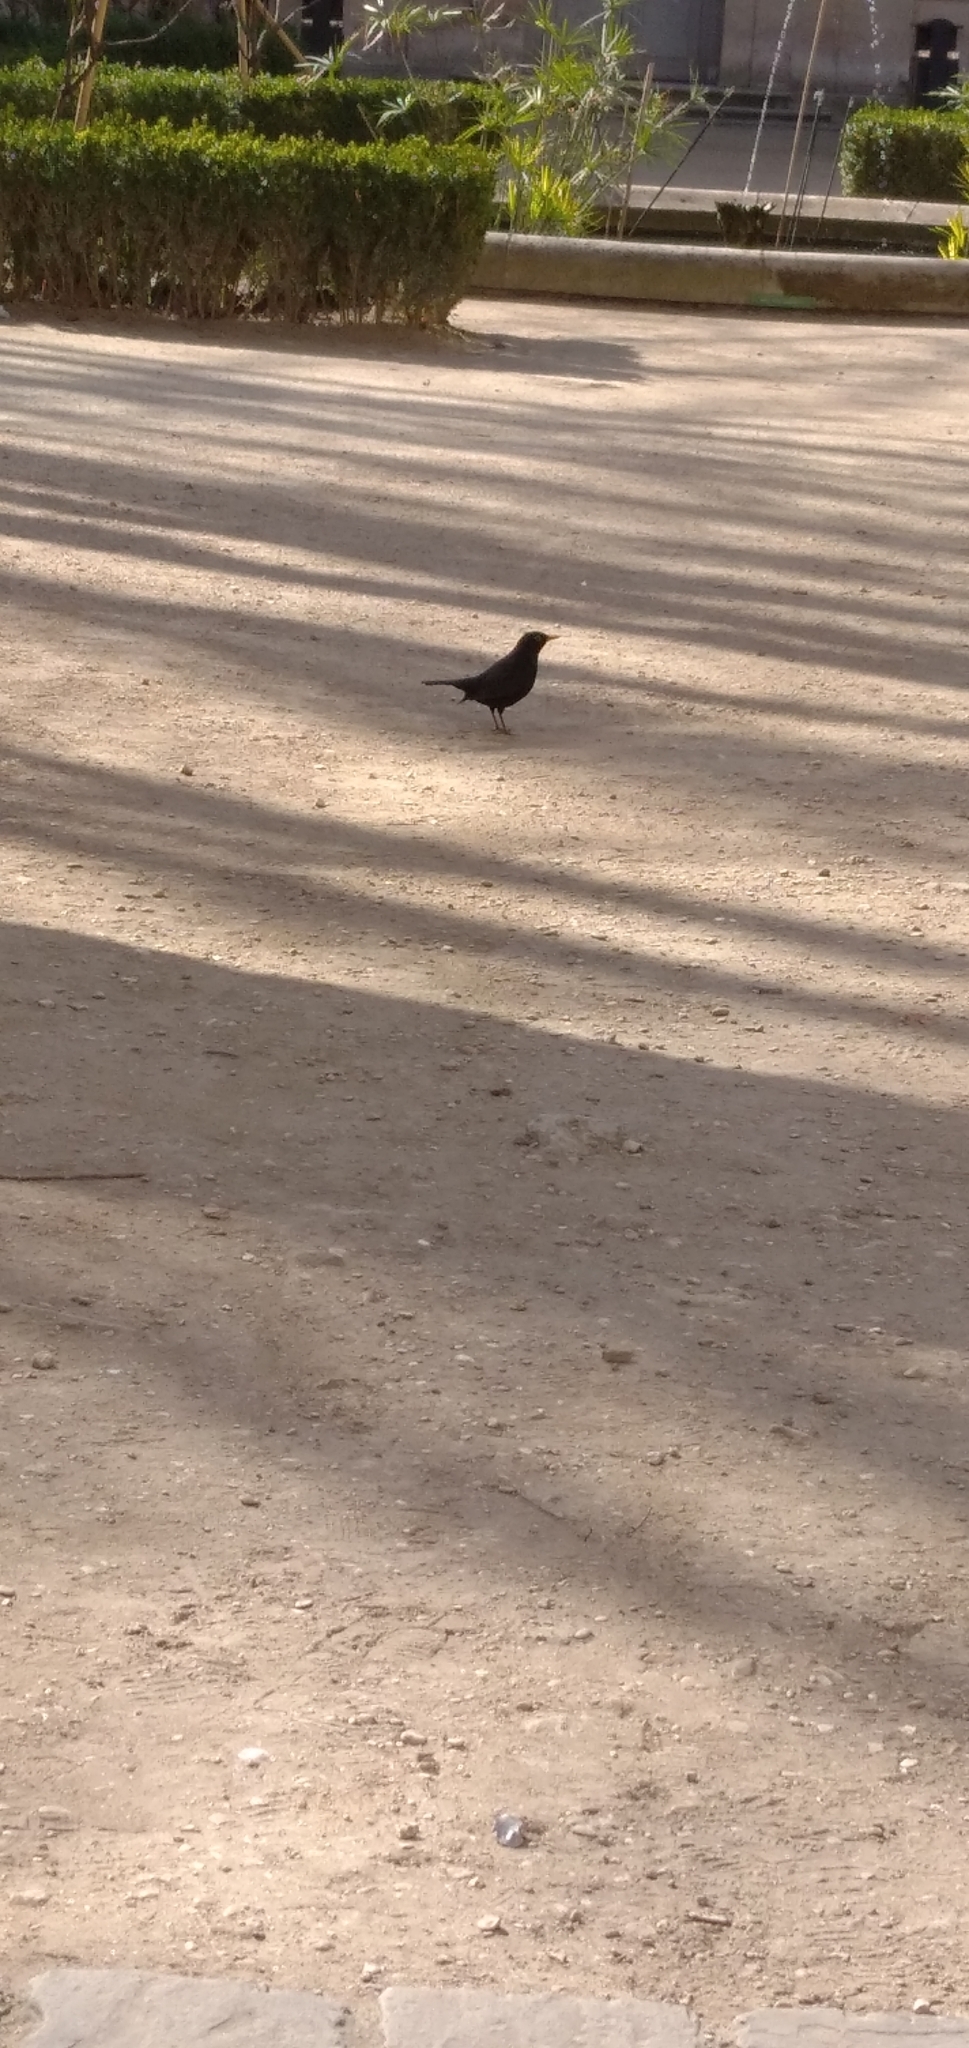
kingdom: Animalia
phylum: Chordata
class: Aves
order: Passeriformes
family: Turdidae
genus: Turdus
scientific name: Turdus merula
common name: Common blackbird
